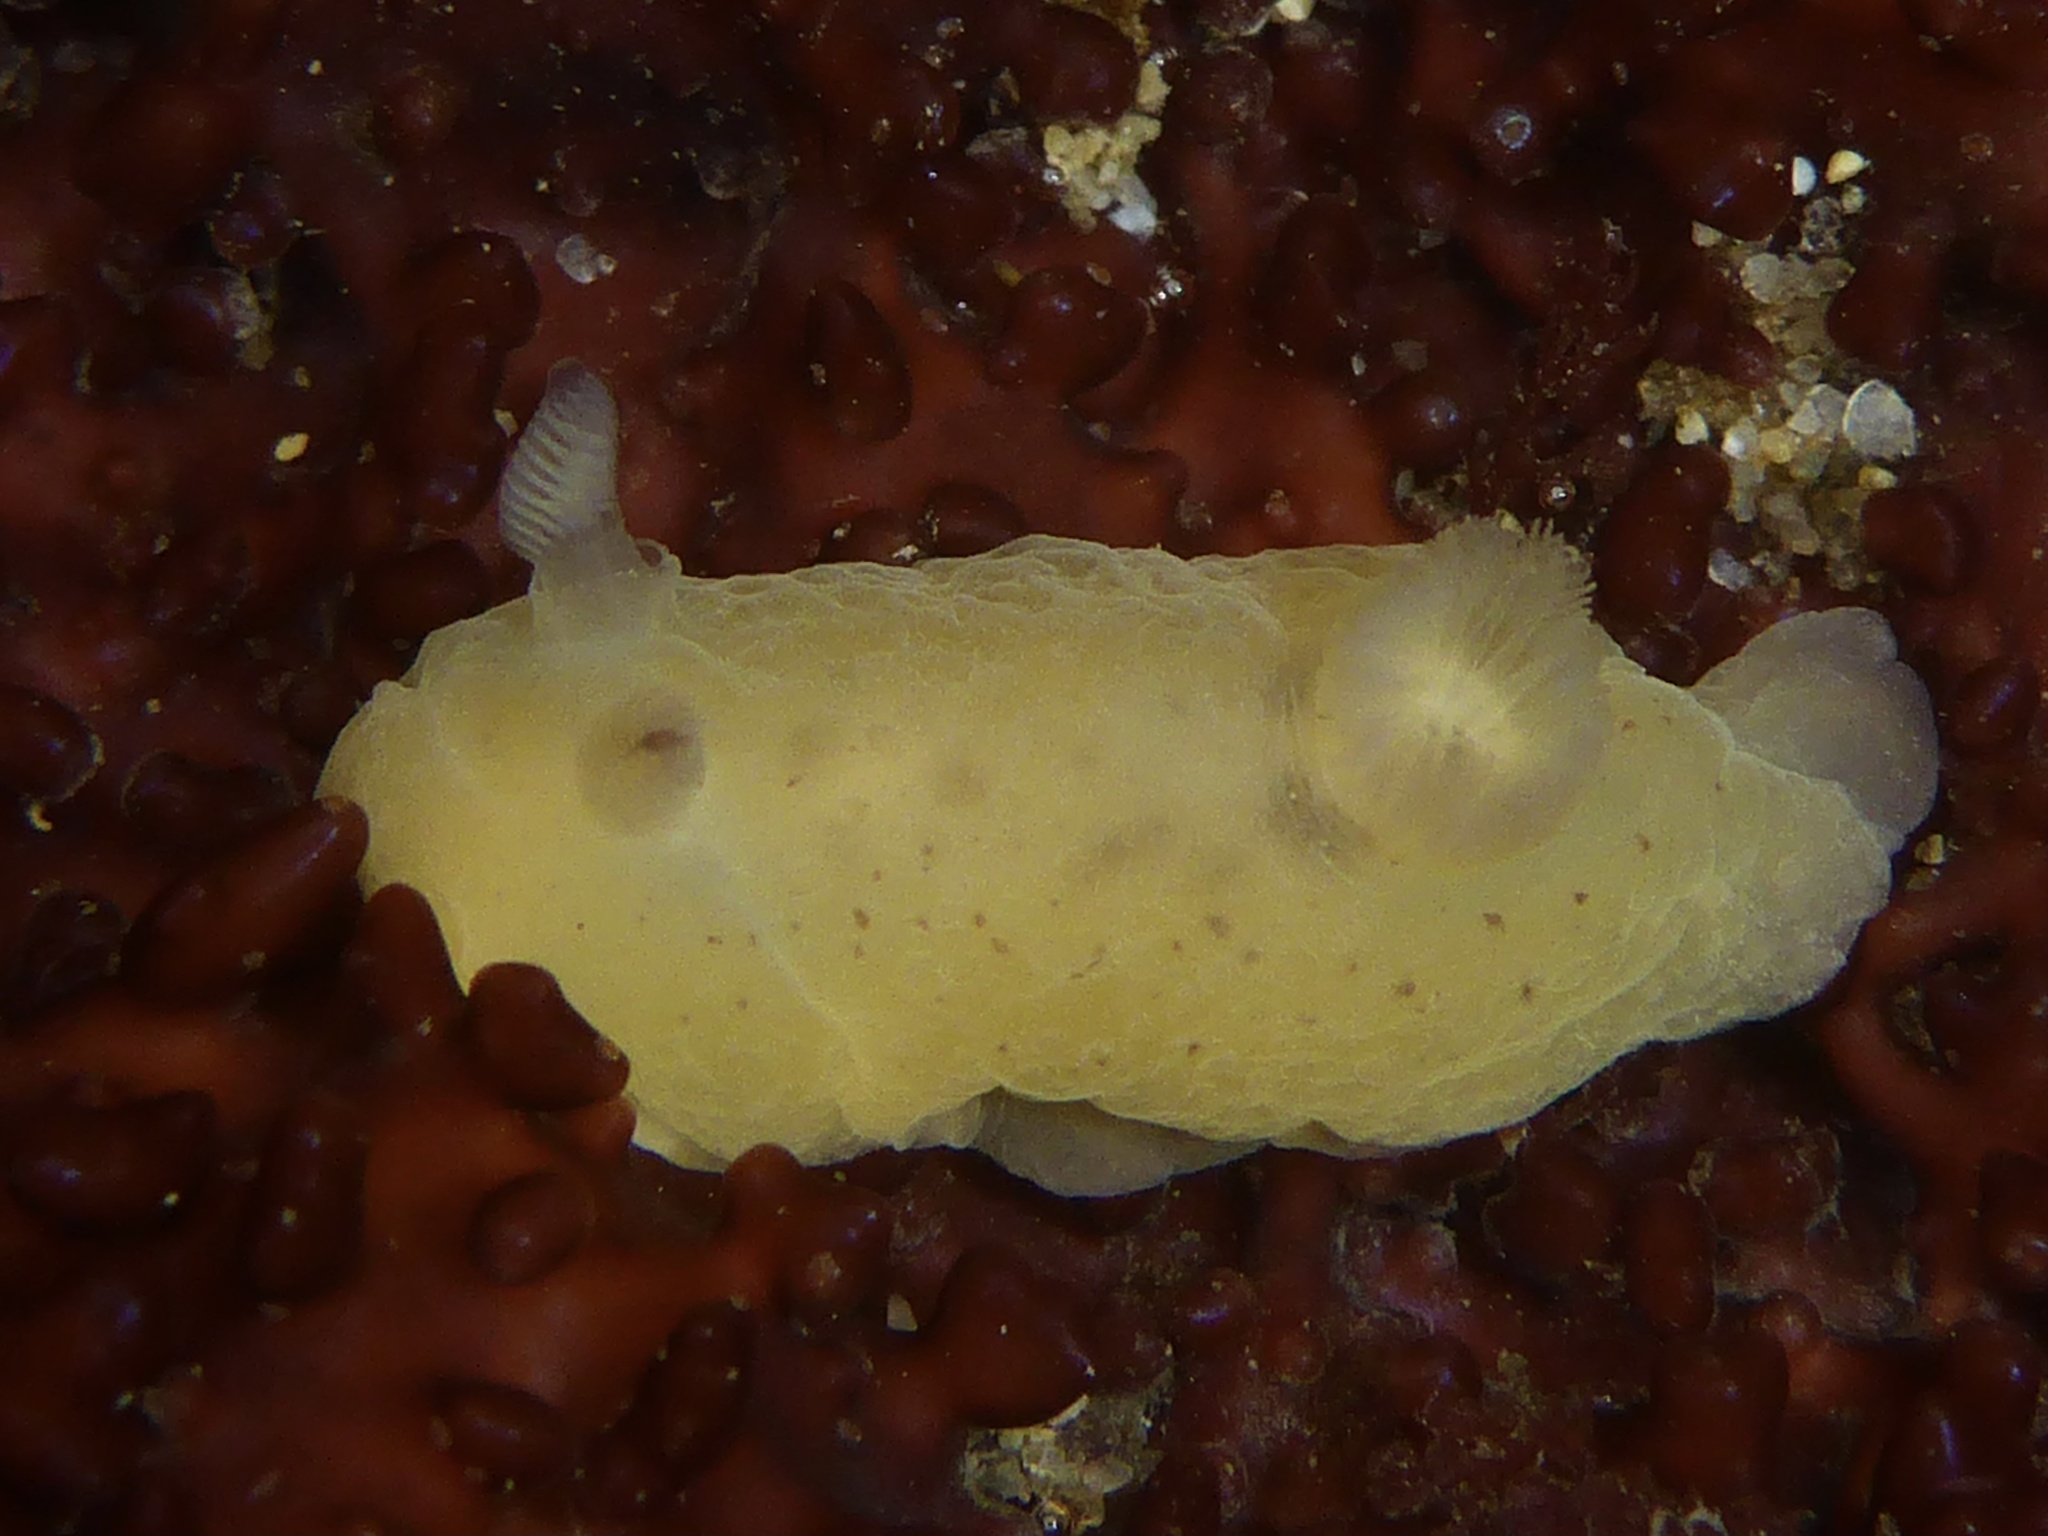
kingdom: Animalia
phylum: Mollusca
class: Gastropoda
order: Nudibranchia
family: Actinocyclidae
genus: Hallaxa
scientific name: Hallaxa chani
